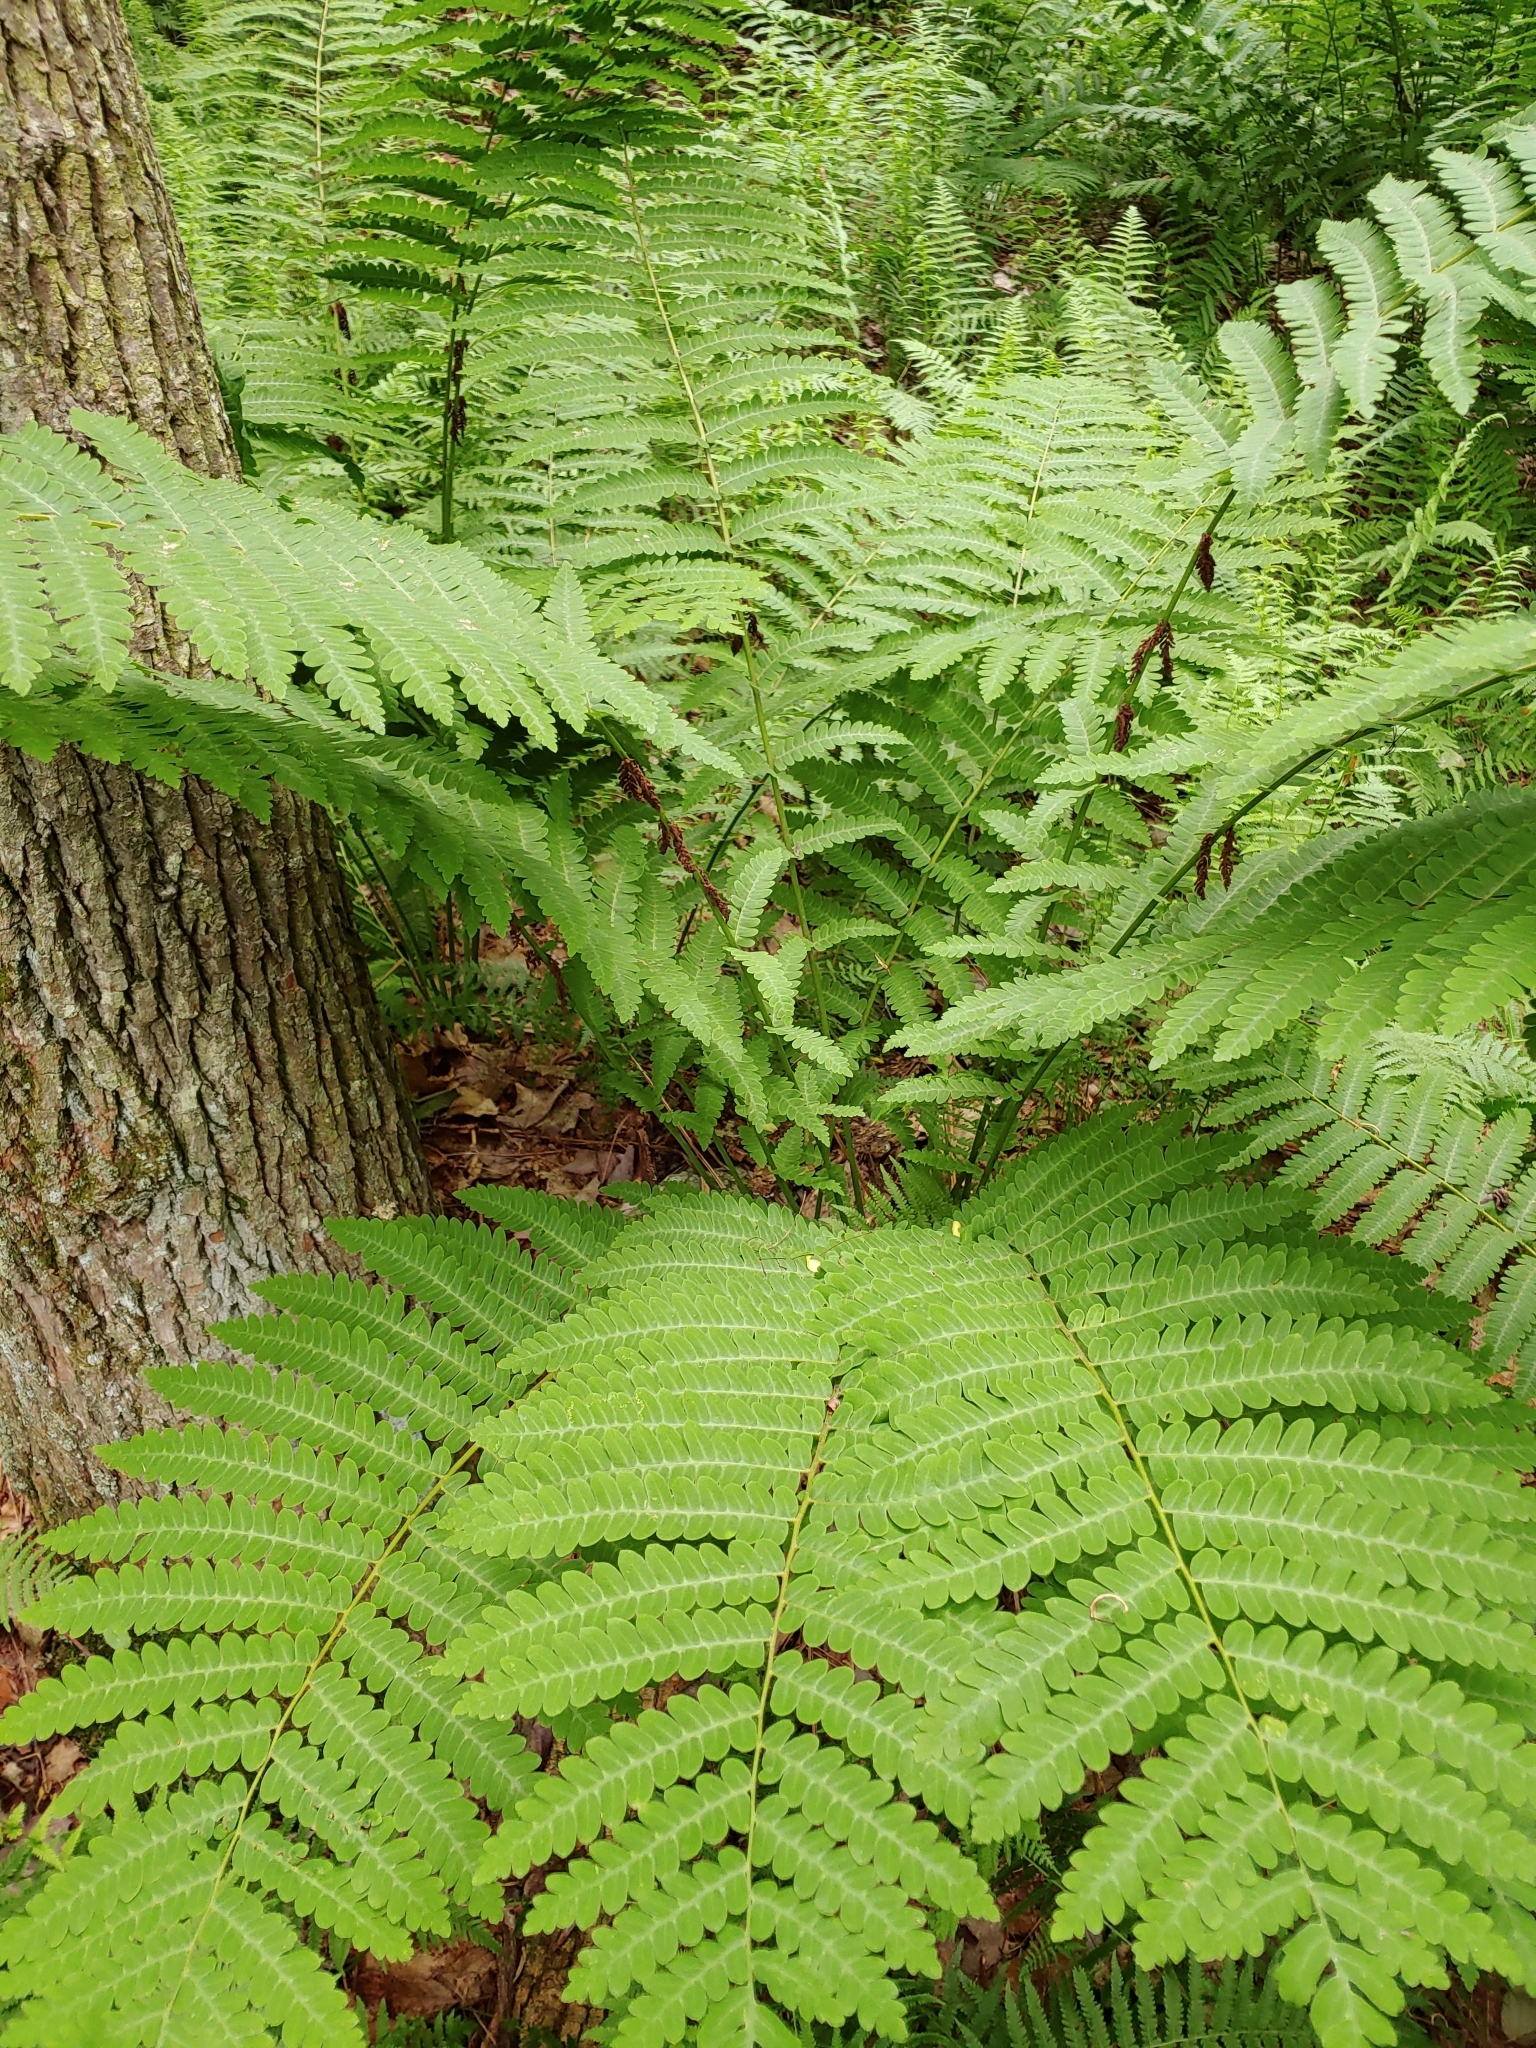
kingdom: Plantae
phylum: Tracheophyta
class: Polypodiopsida
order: Osmundales
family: Osmundaceae
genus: Claytosmunda
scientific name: Claytosmunda claytoniana
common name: Clayton's fern
